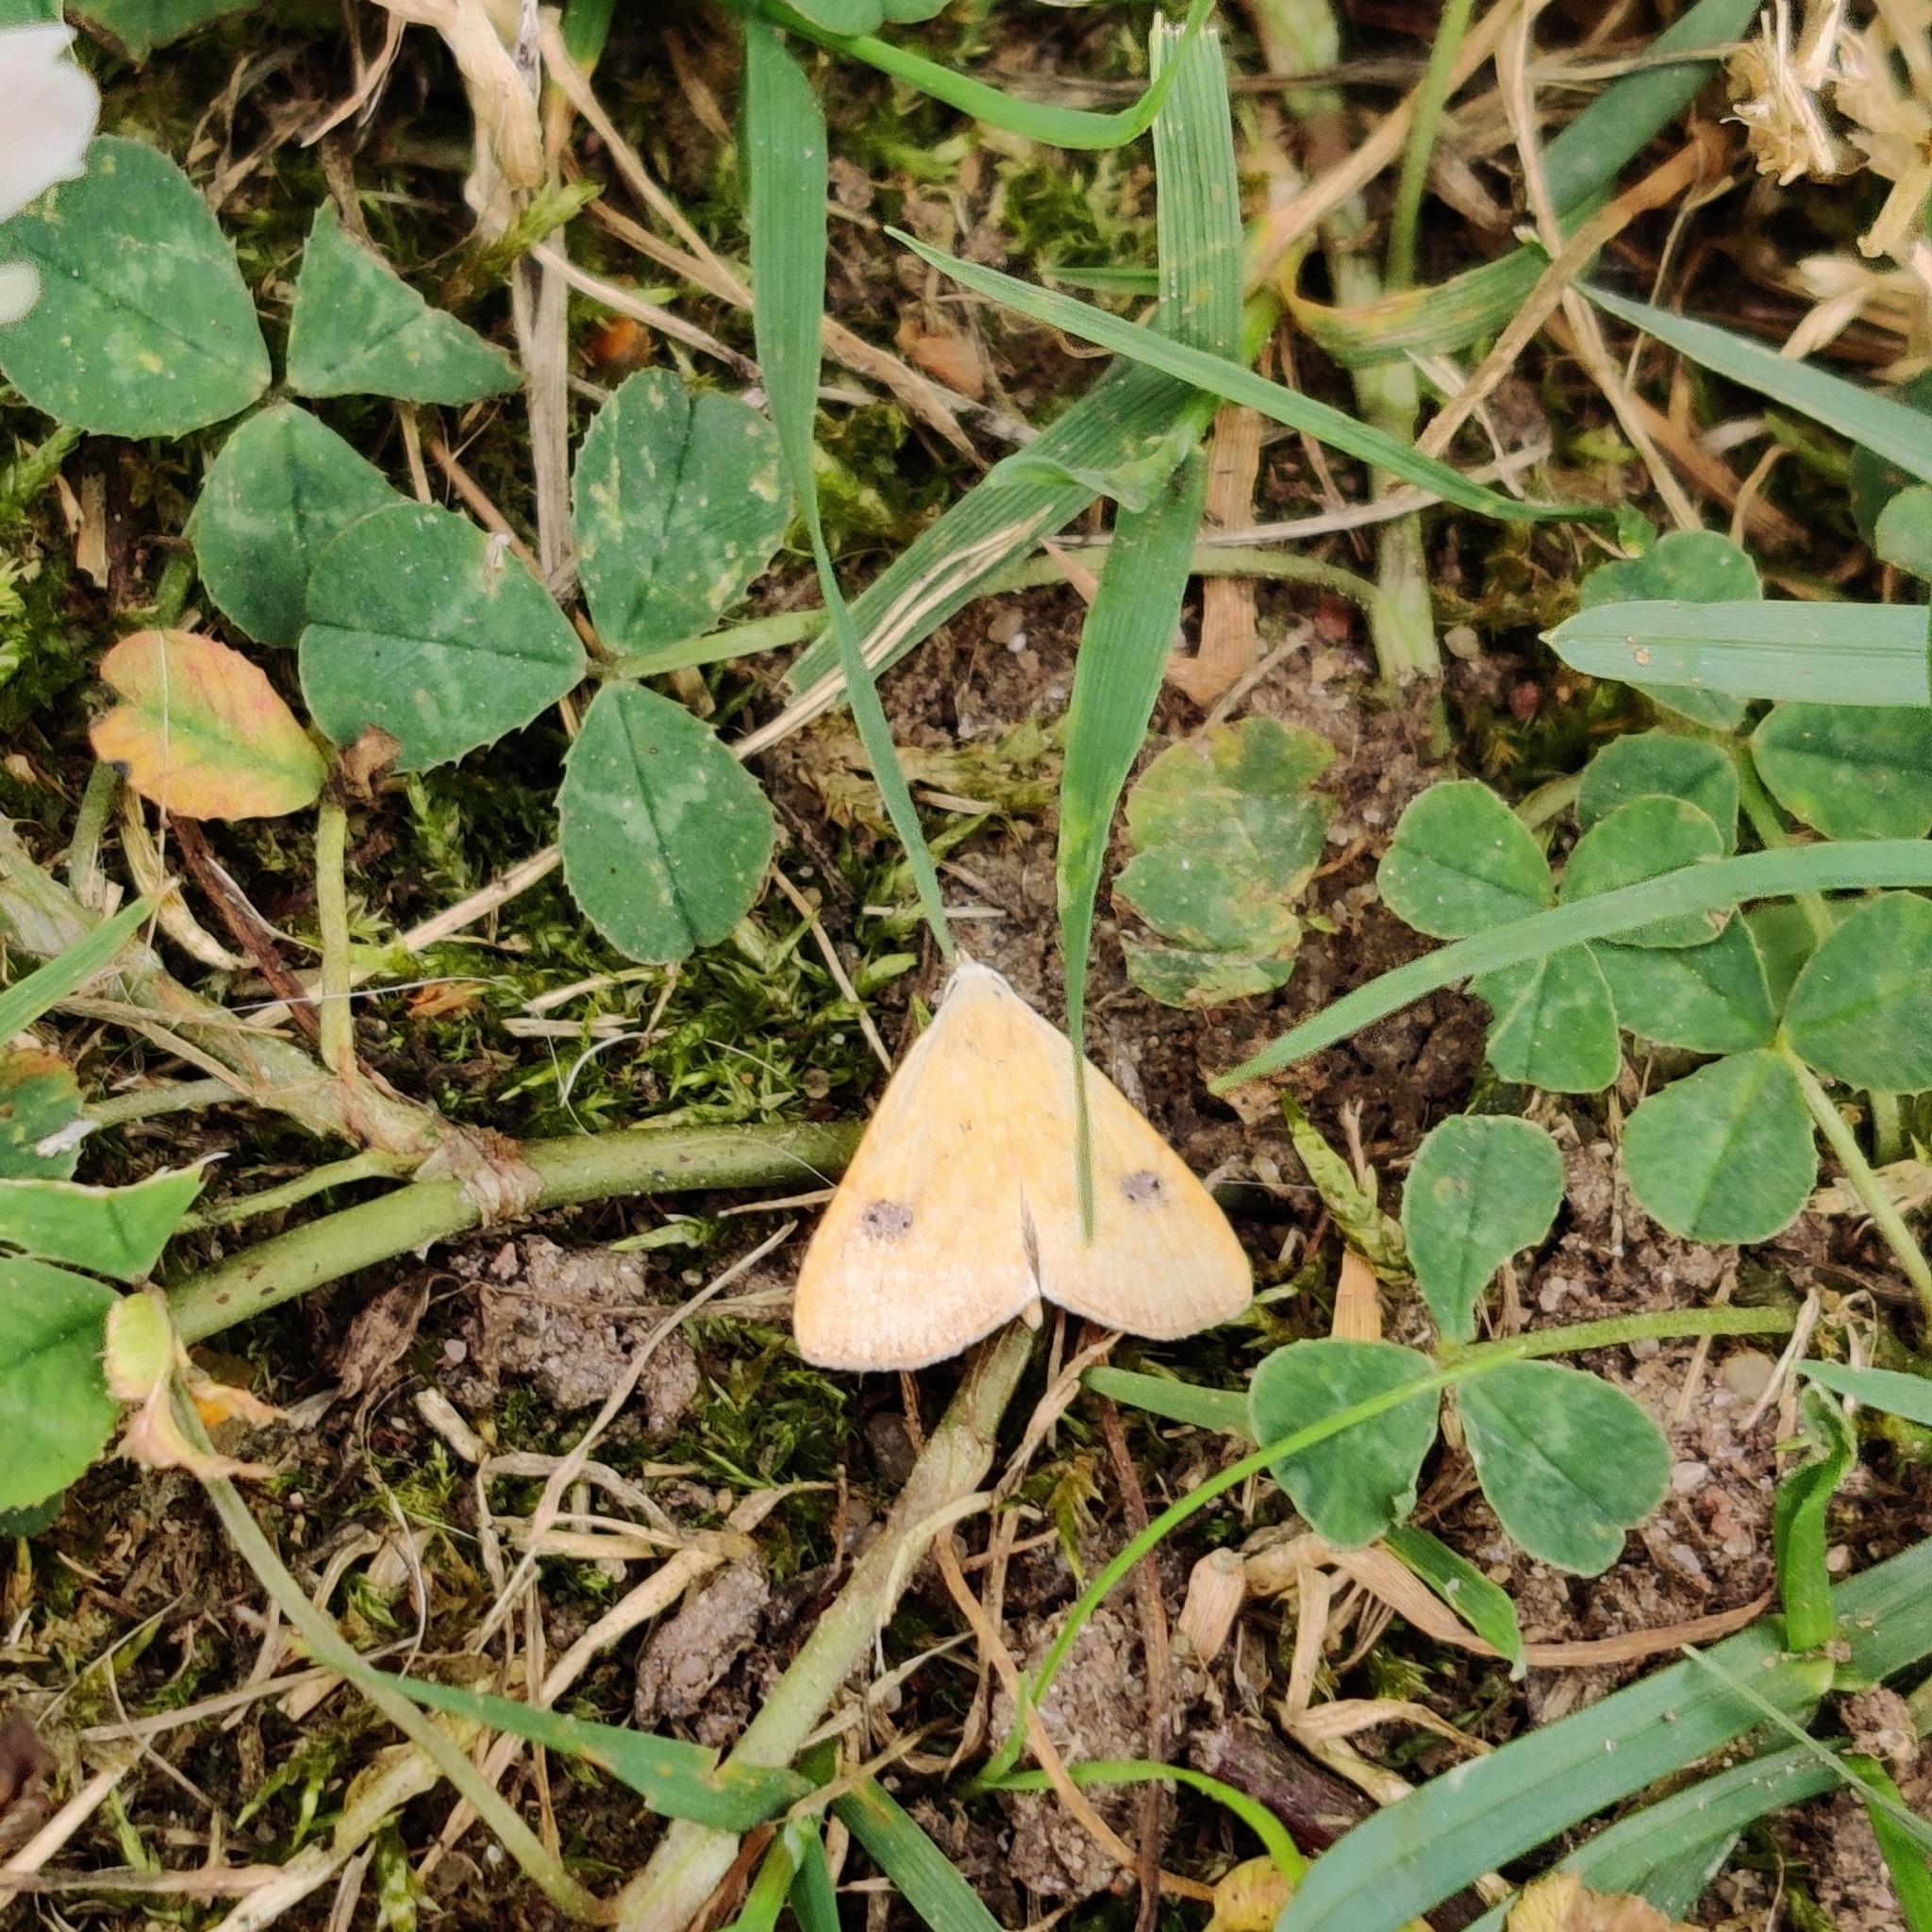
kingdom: Animalia
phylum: Arthropoda
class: Insecta
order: Lepidoptera
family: Erebidae
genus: Rivula
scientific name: Rivula sericealis
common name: Straw dot
